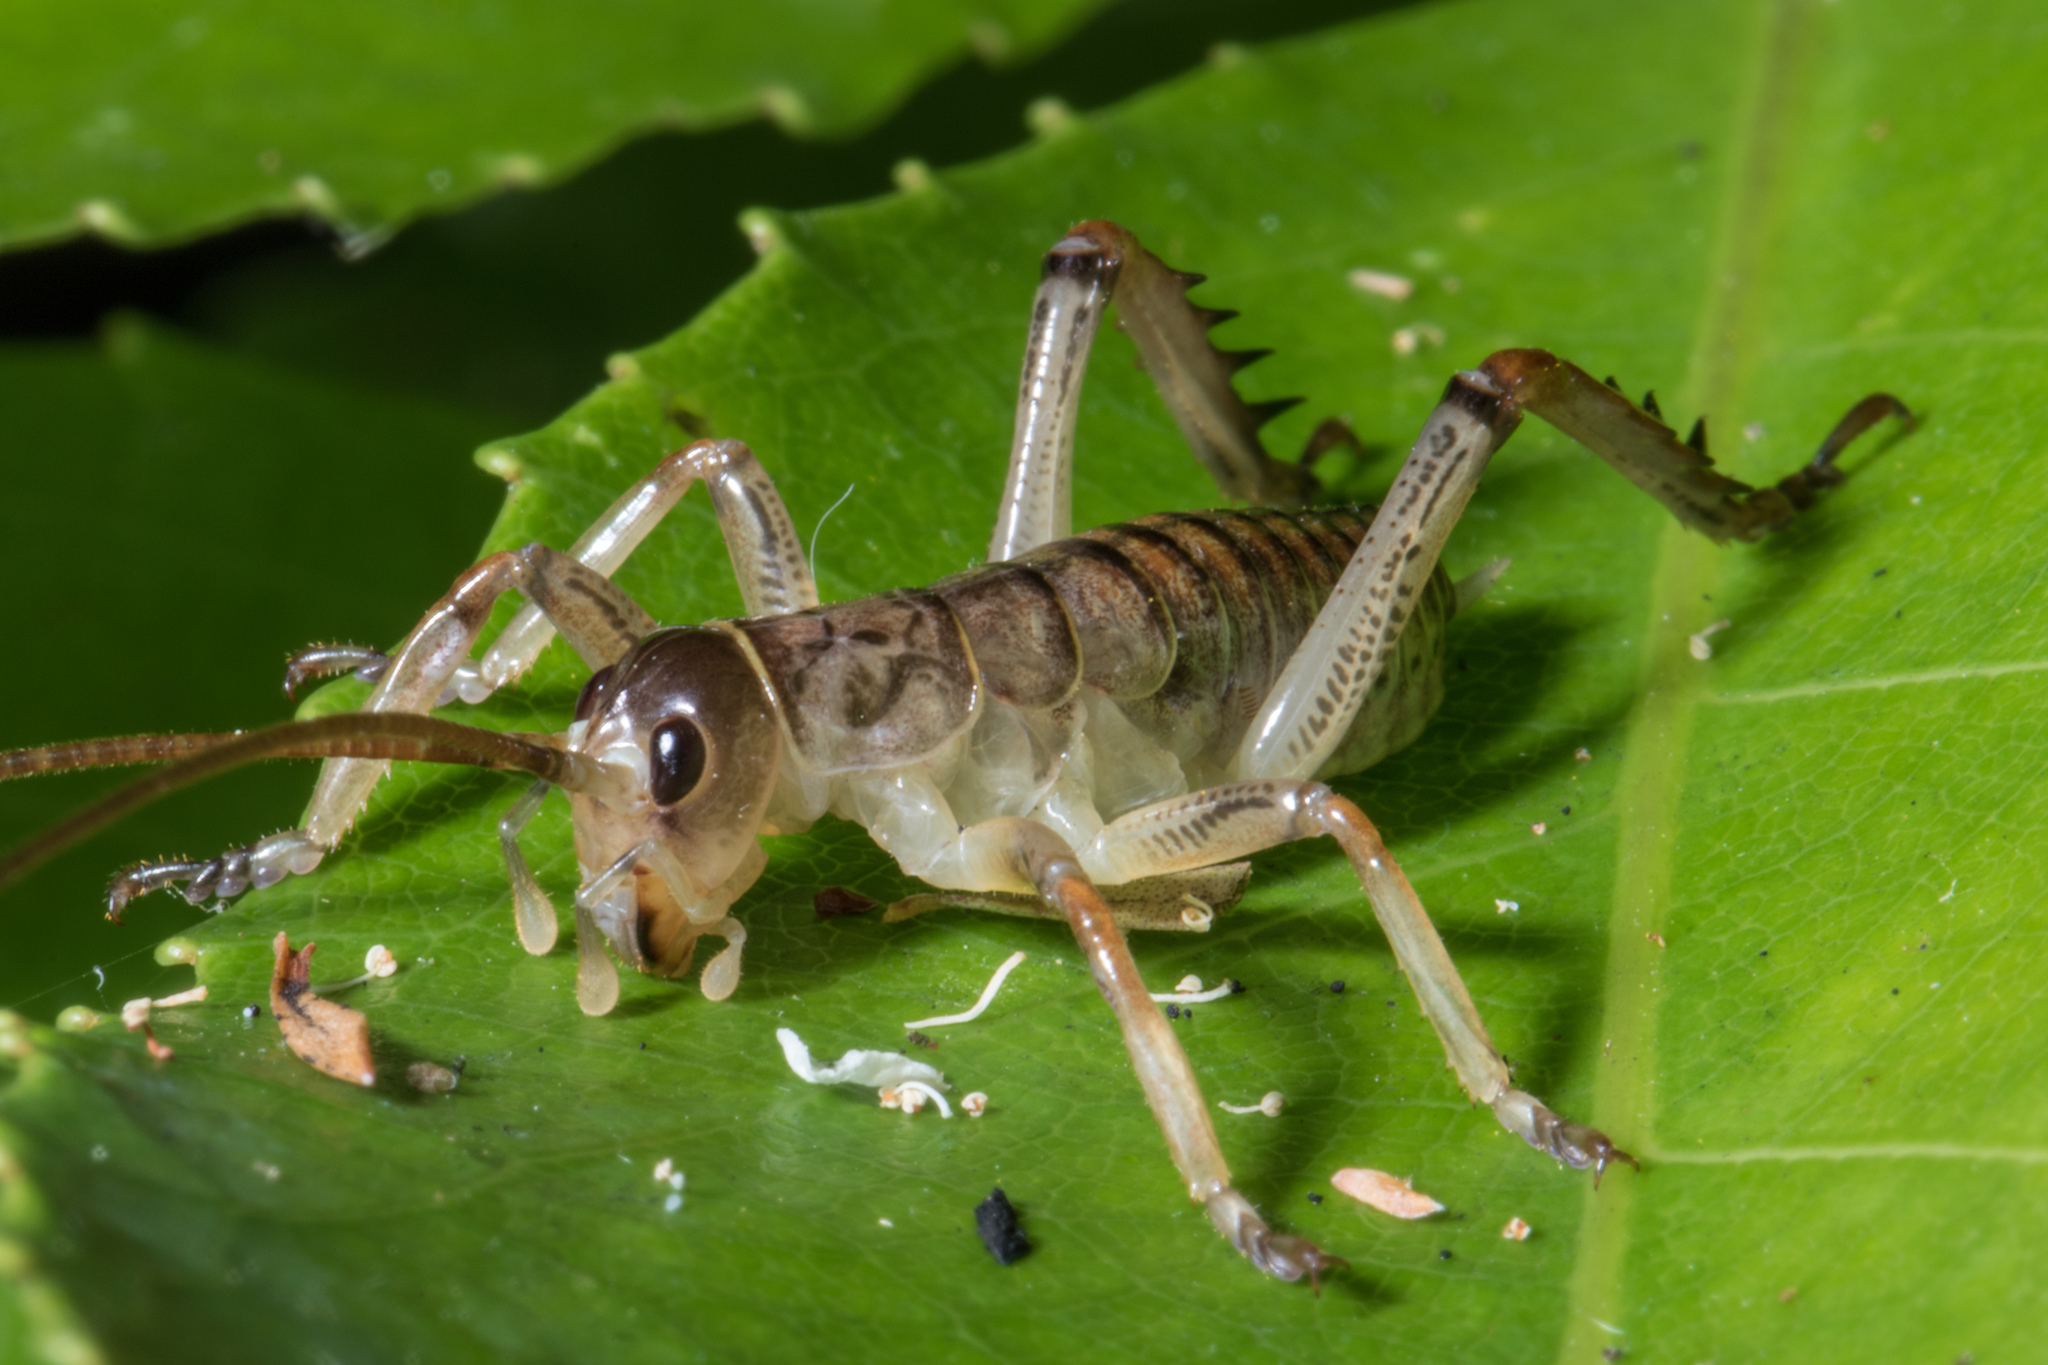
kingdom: Animalia
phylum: Arthropoda
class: Insecta
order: Orthoptera
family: Anostostomatidae
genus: Hemideina
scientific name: Hemideina thoracica
